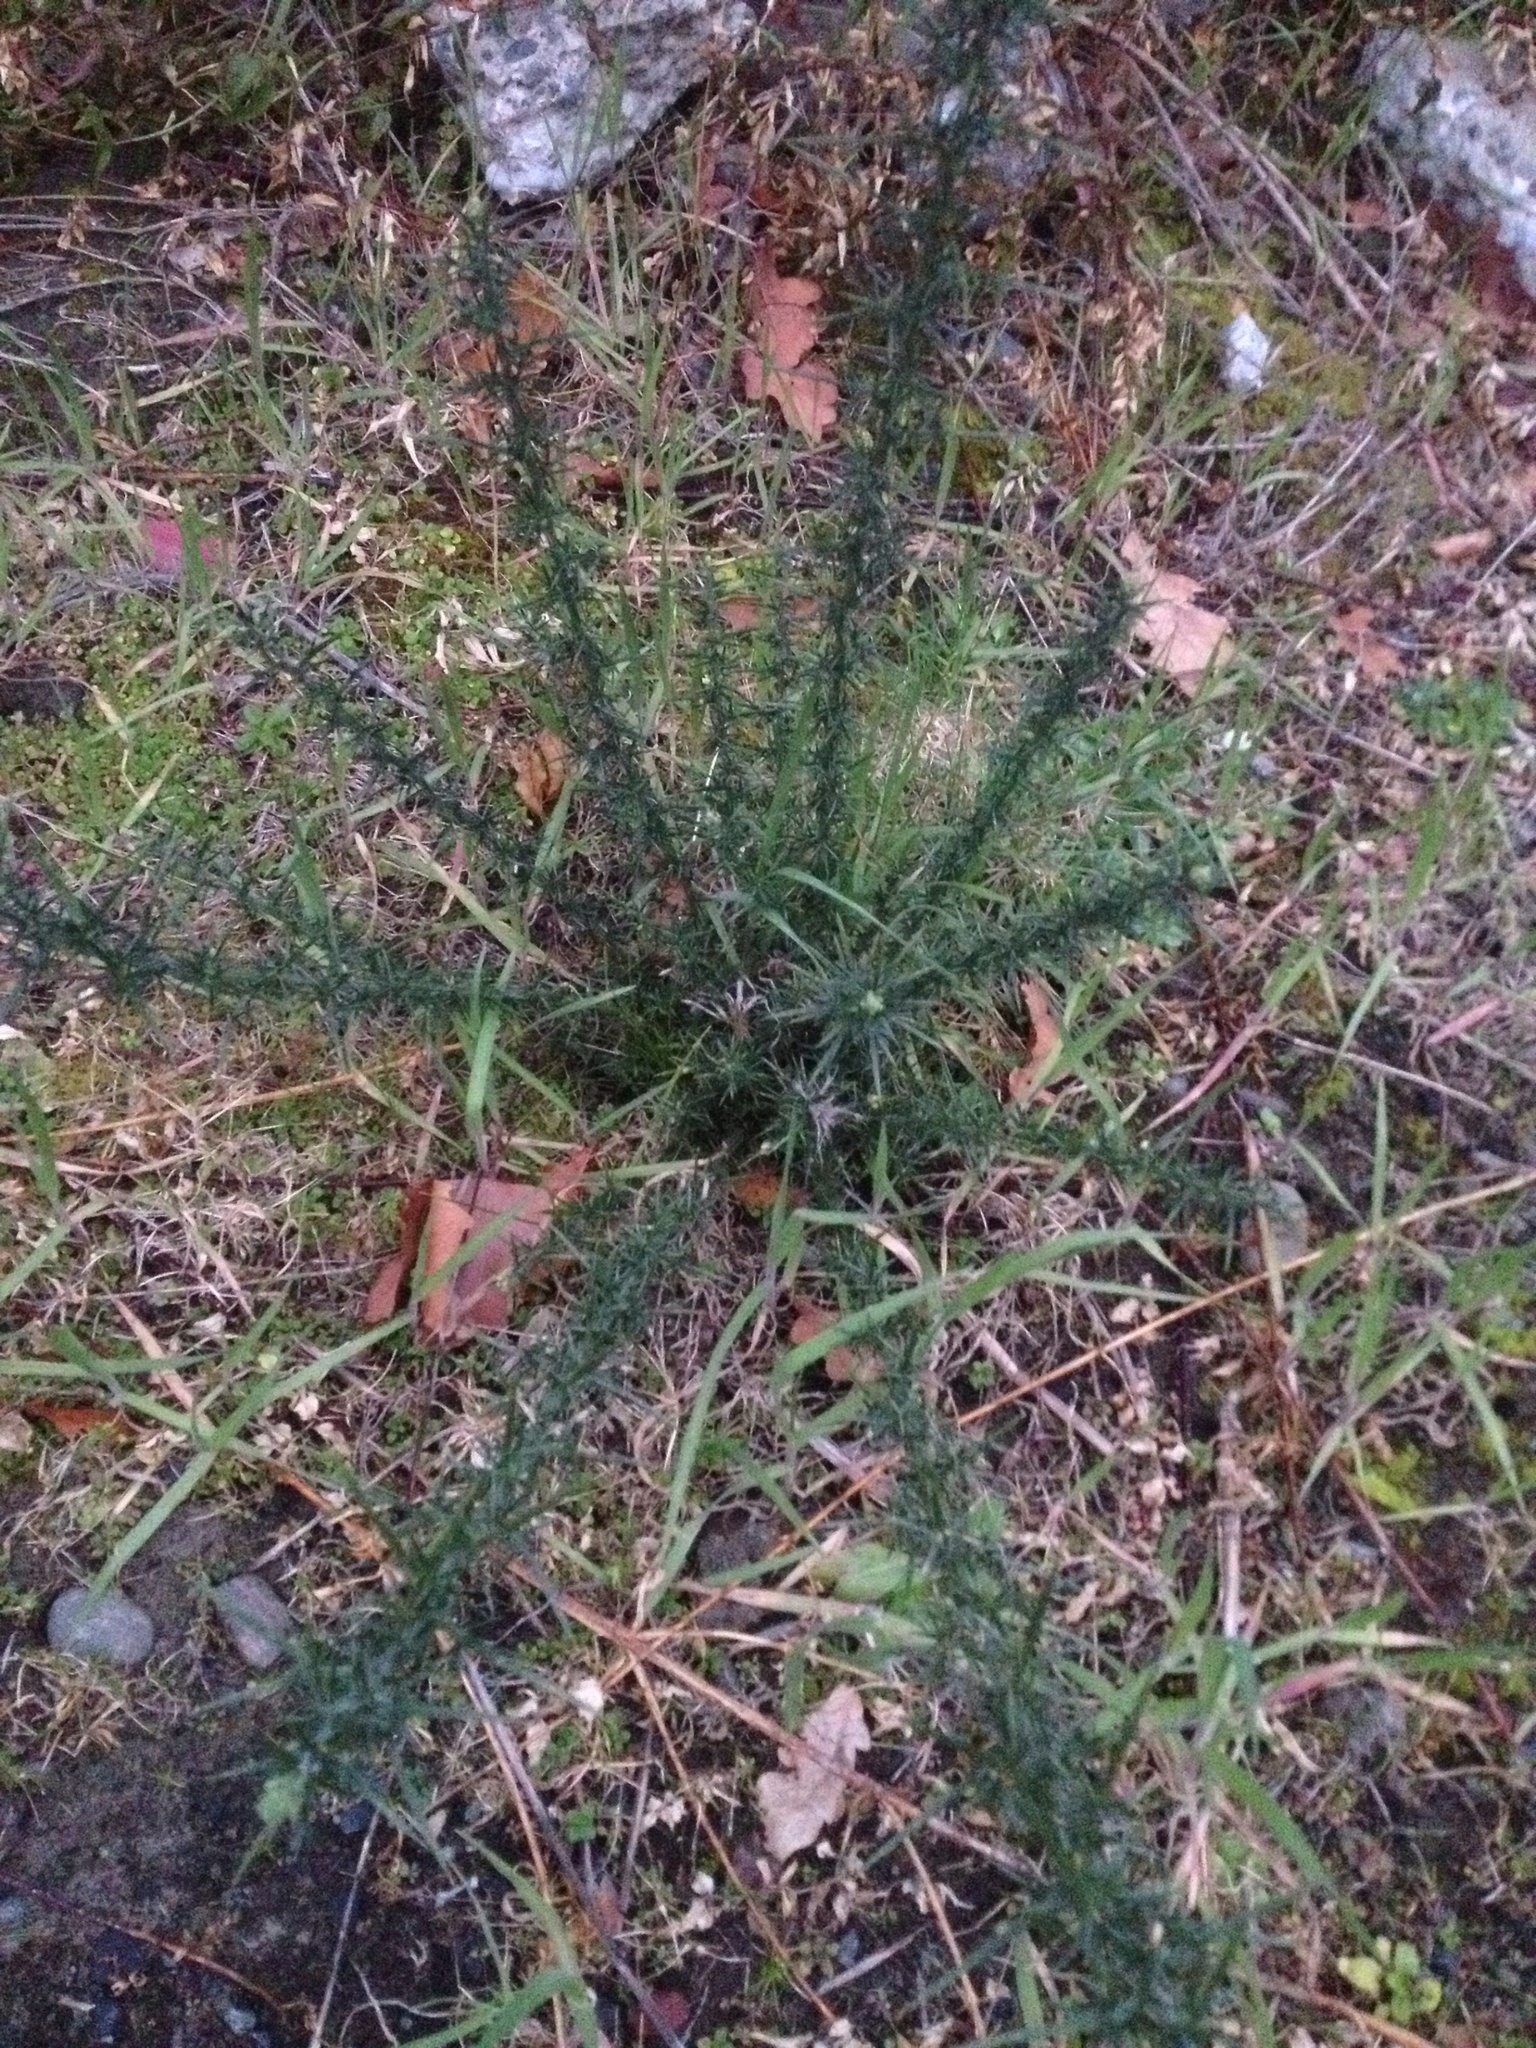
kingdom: Plantae
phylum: Tracheophyta
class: Magnoliopsida
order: Fabales
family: Fabaceae
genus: Ulex
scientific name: Ulex europaeus
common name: Common gorse
